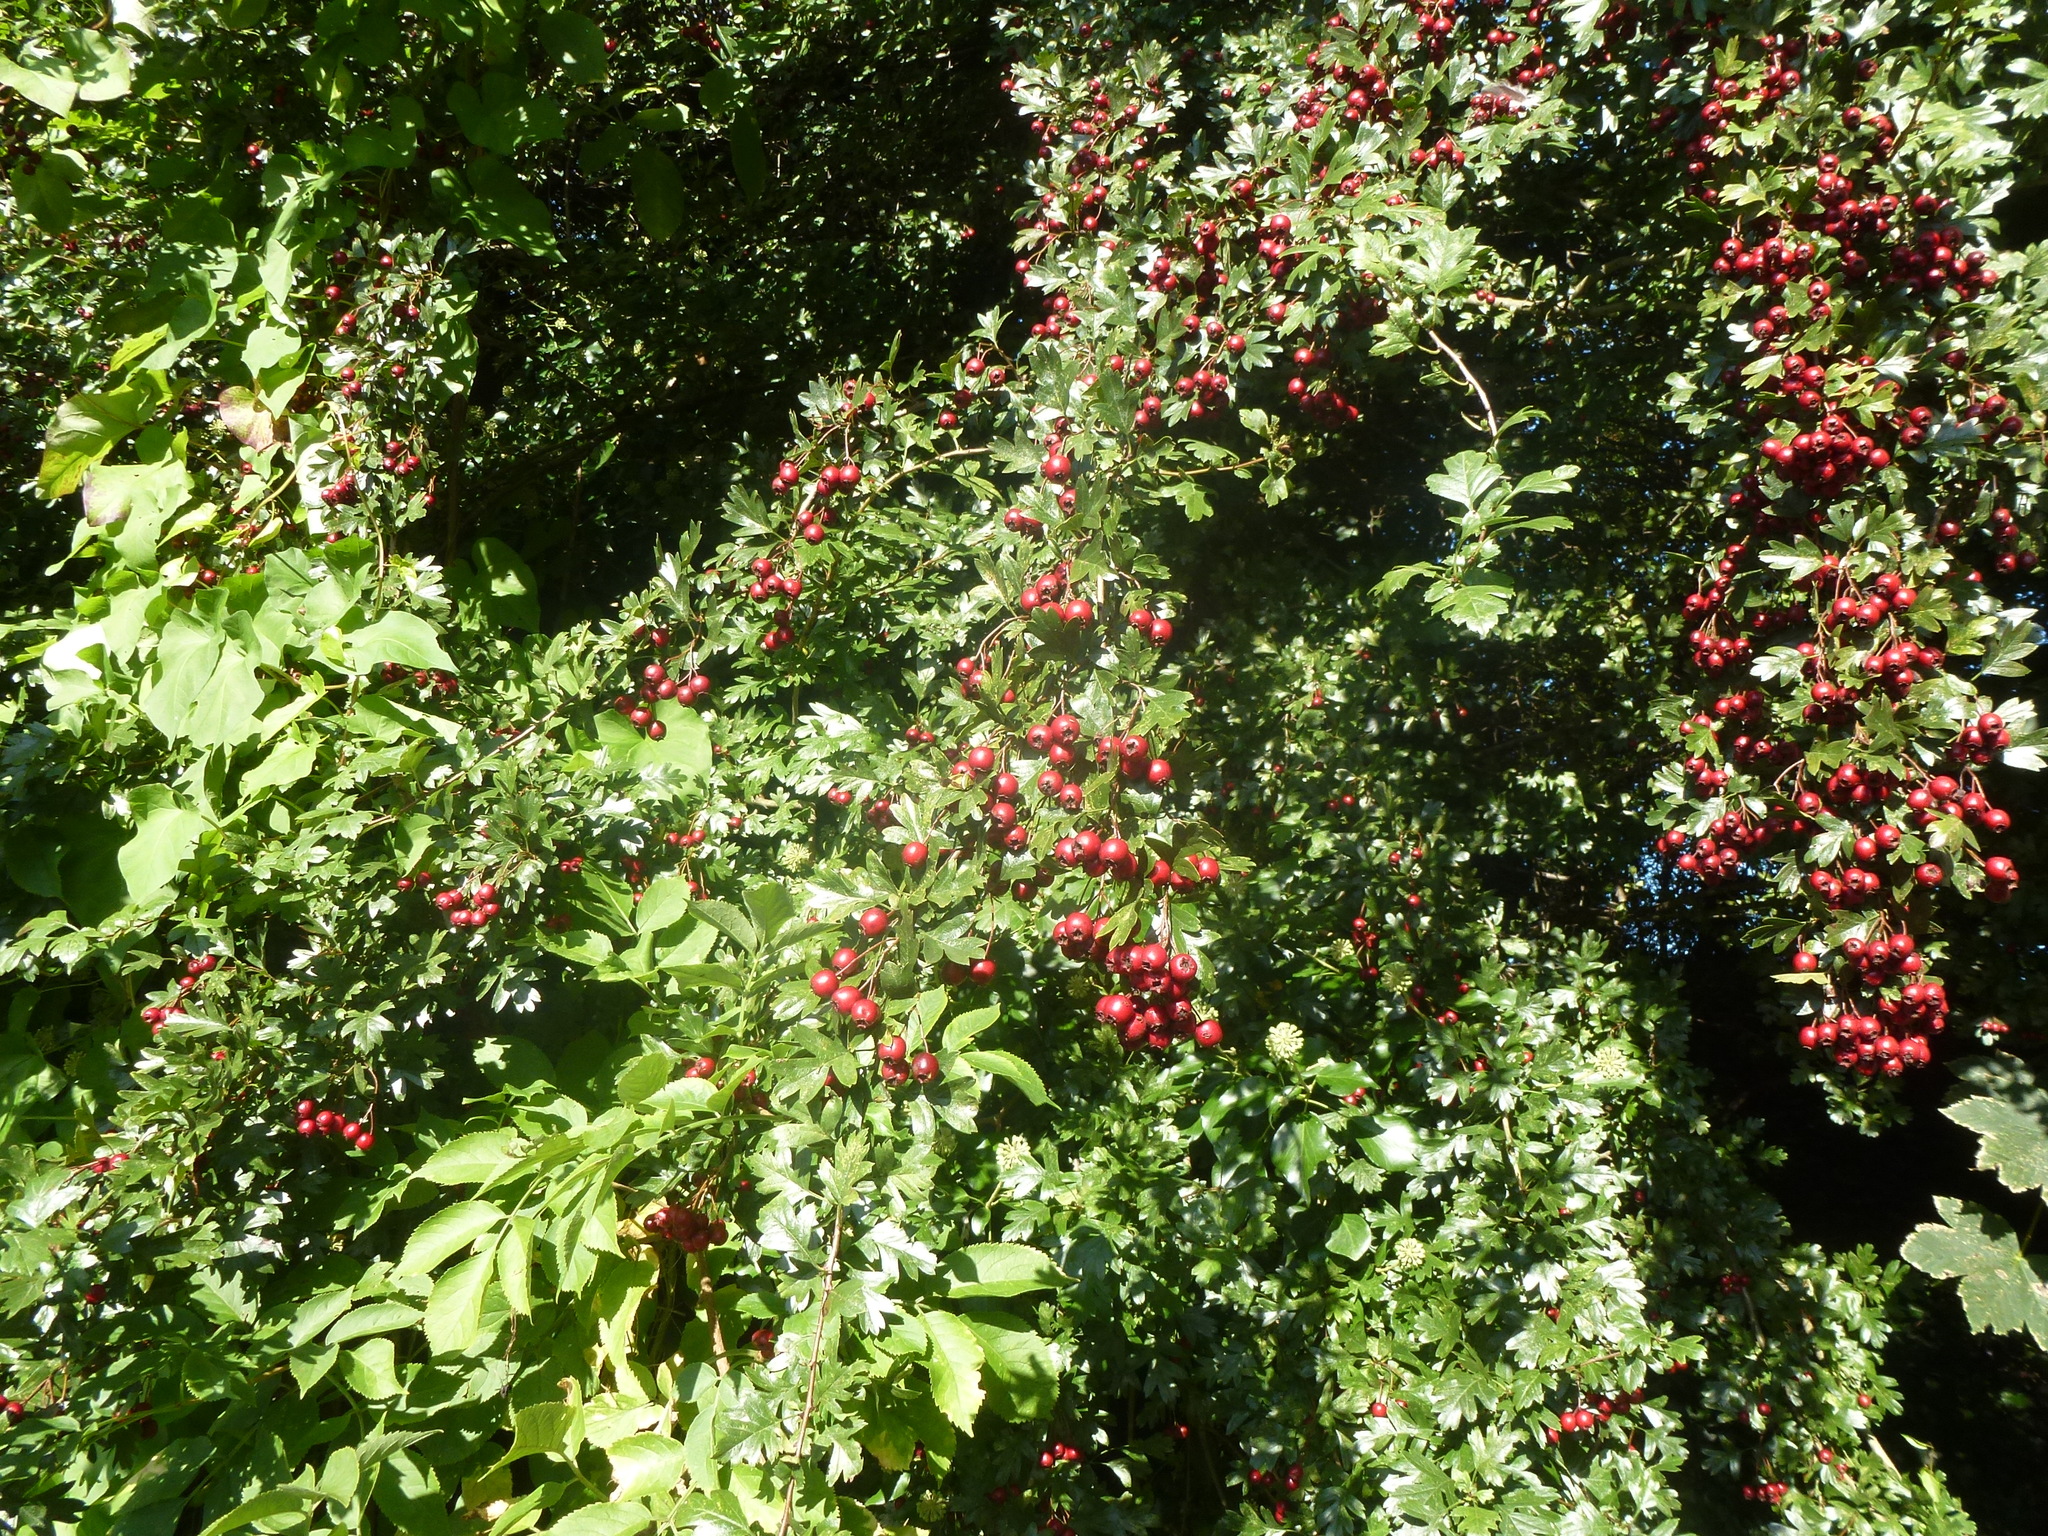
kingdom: Plantae
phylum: Tracheophyta
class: Magnoliopsida
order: Rosales
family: Rosaceae
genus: Crataegus
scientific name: Crataegus monogyna
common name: Hawthorn
